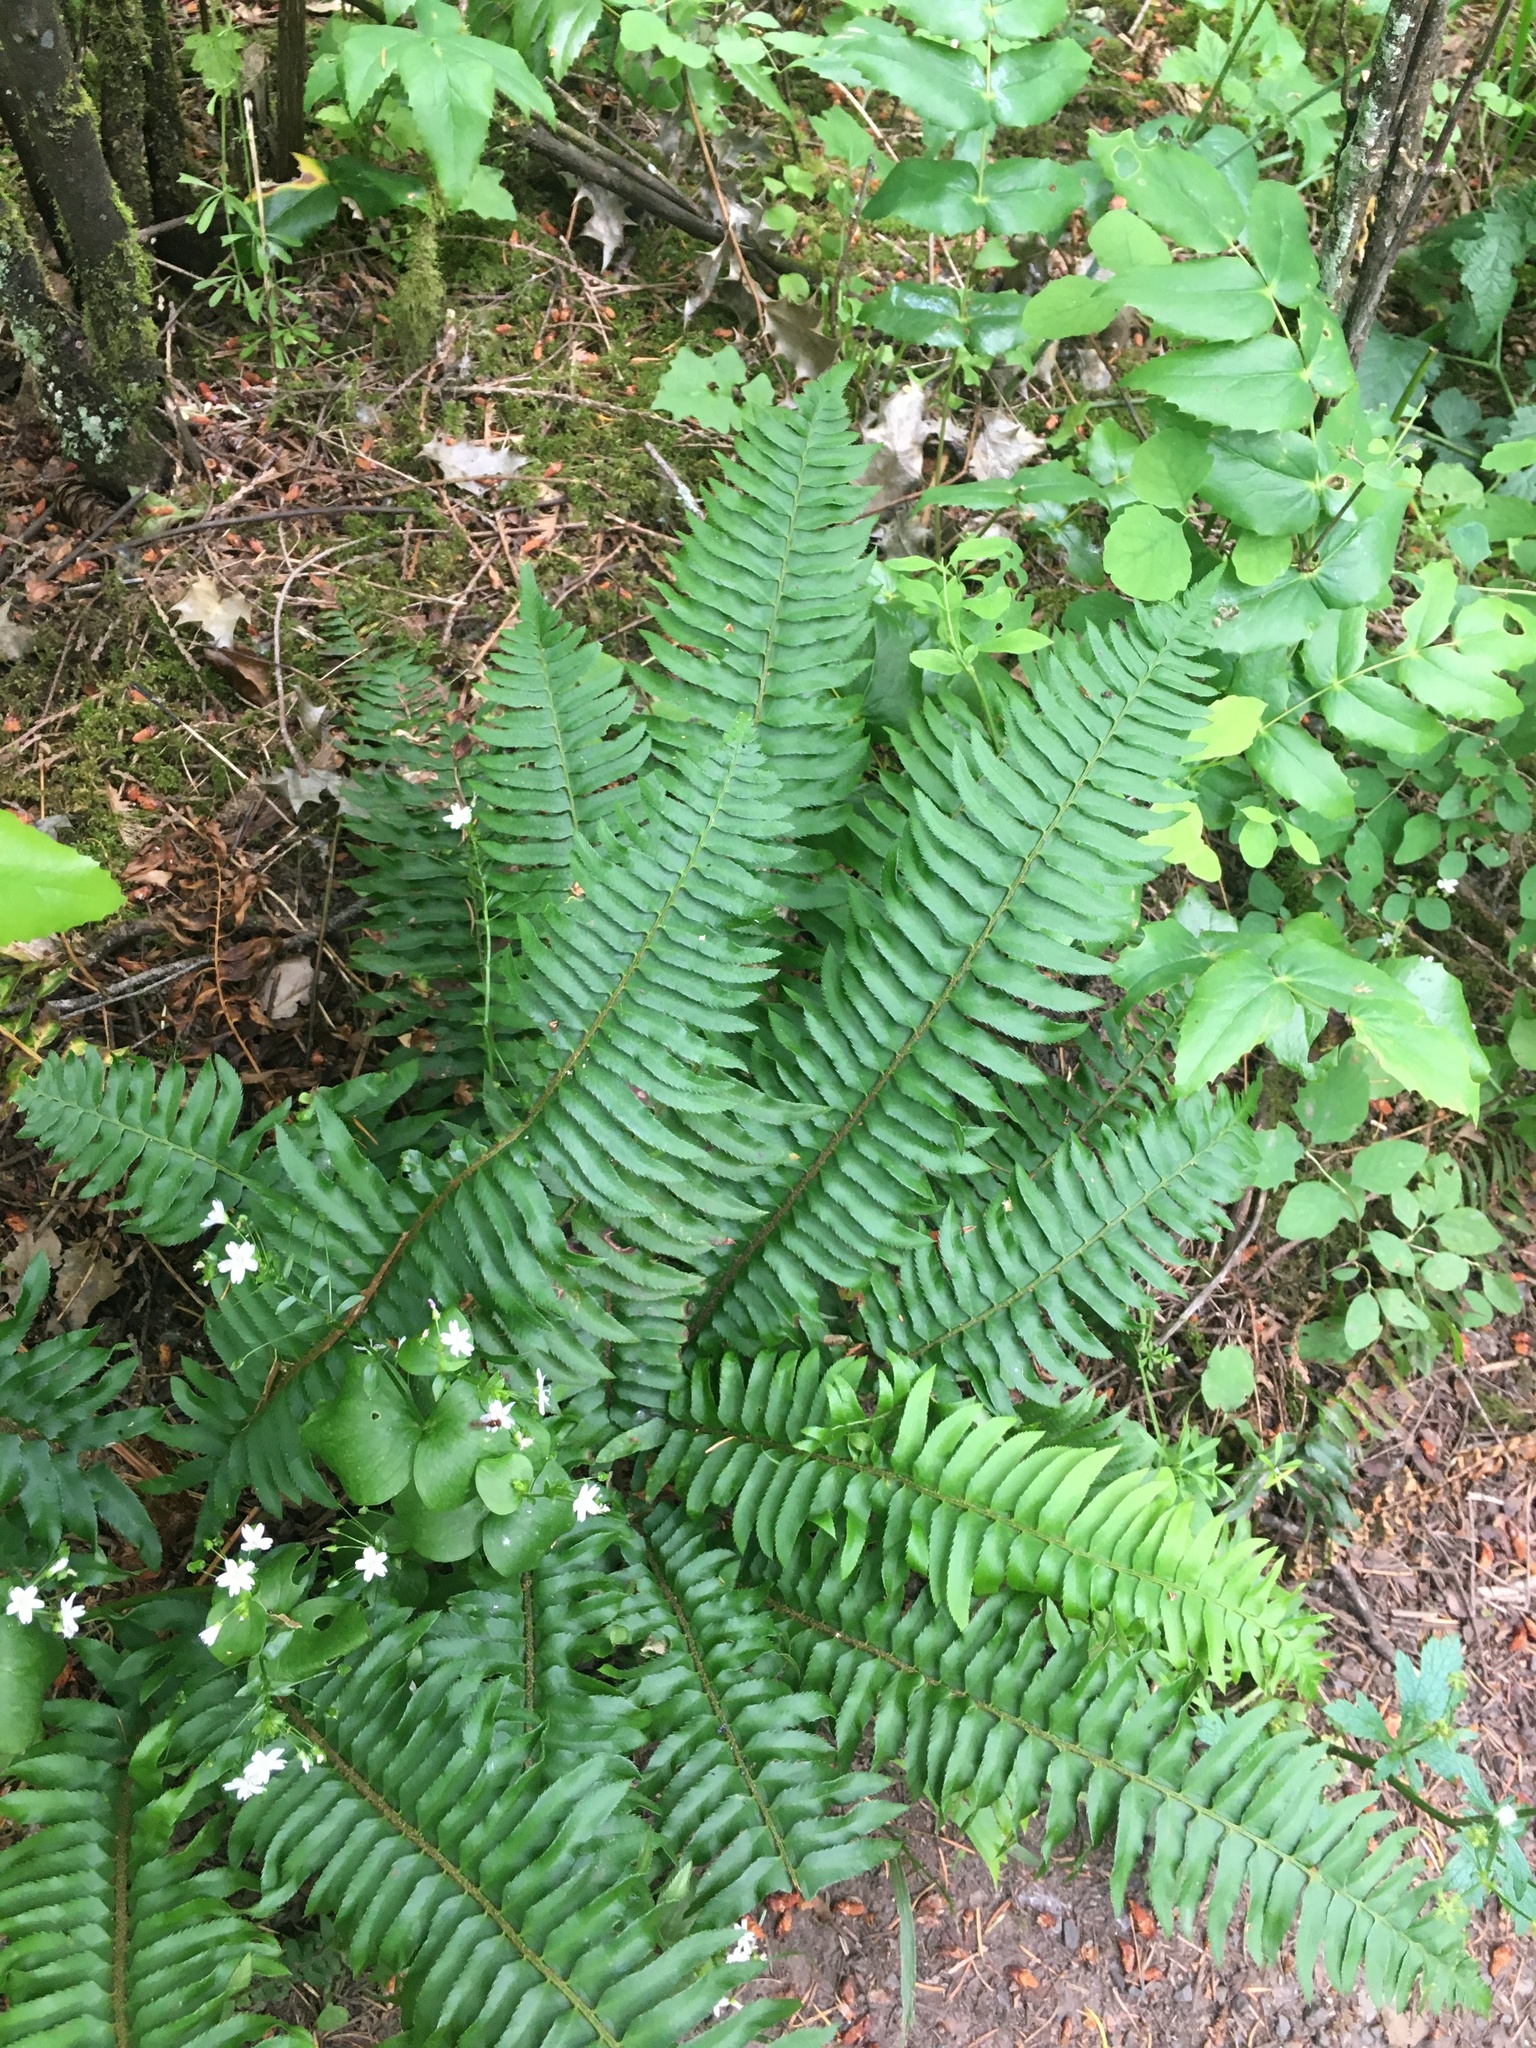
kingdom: Plantae
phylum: Tracheophyta
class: Polypodiopsida
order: Polypodiales
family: Dryopteridaceae
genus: Polystichum
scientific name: Polystichum munitum
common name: Western sword-fern
